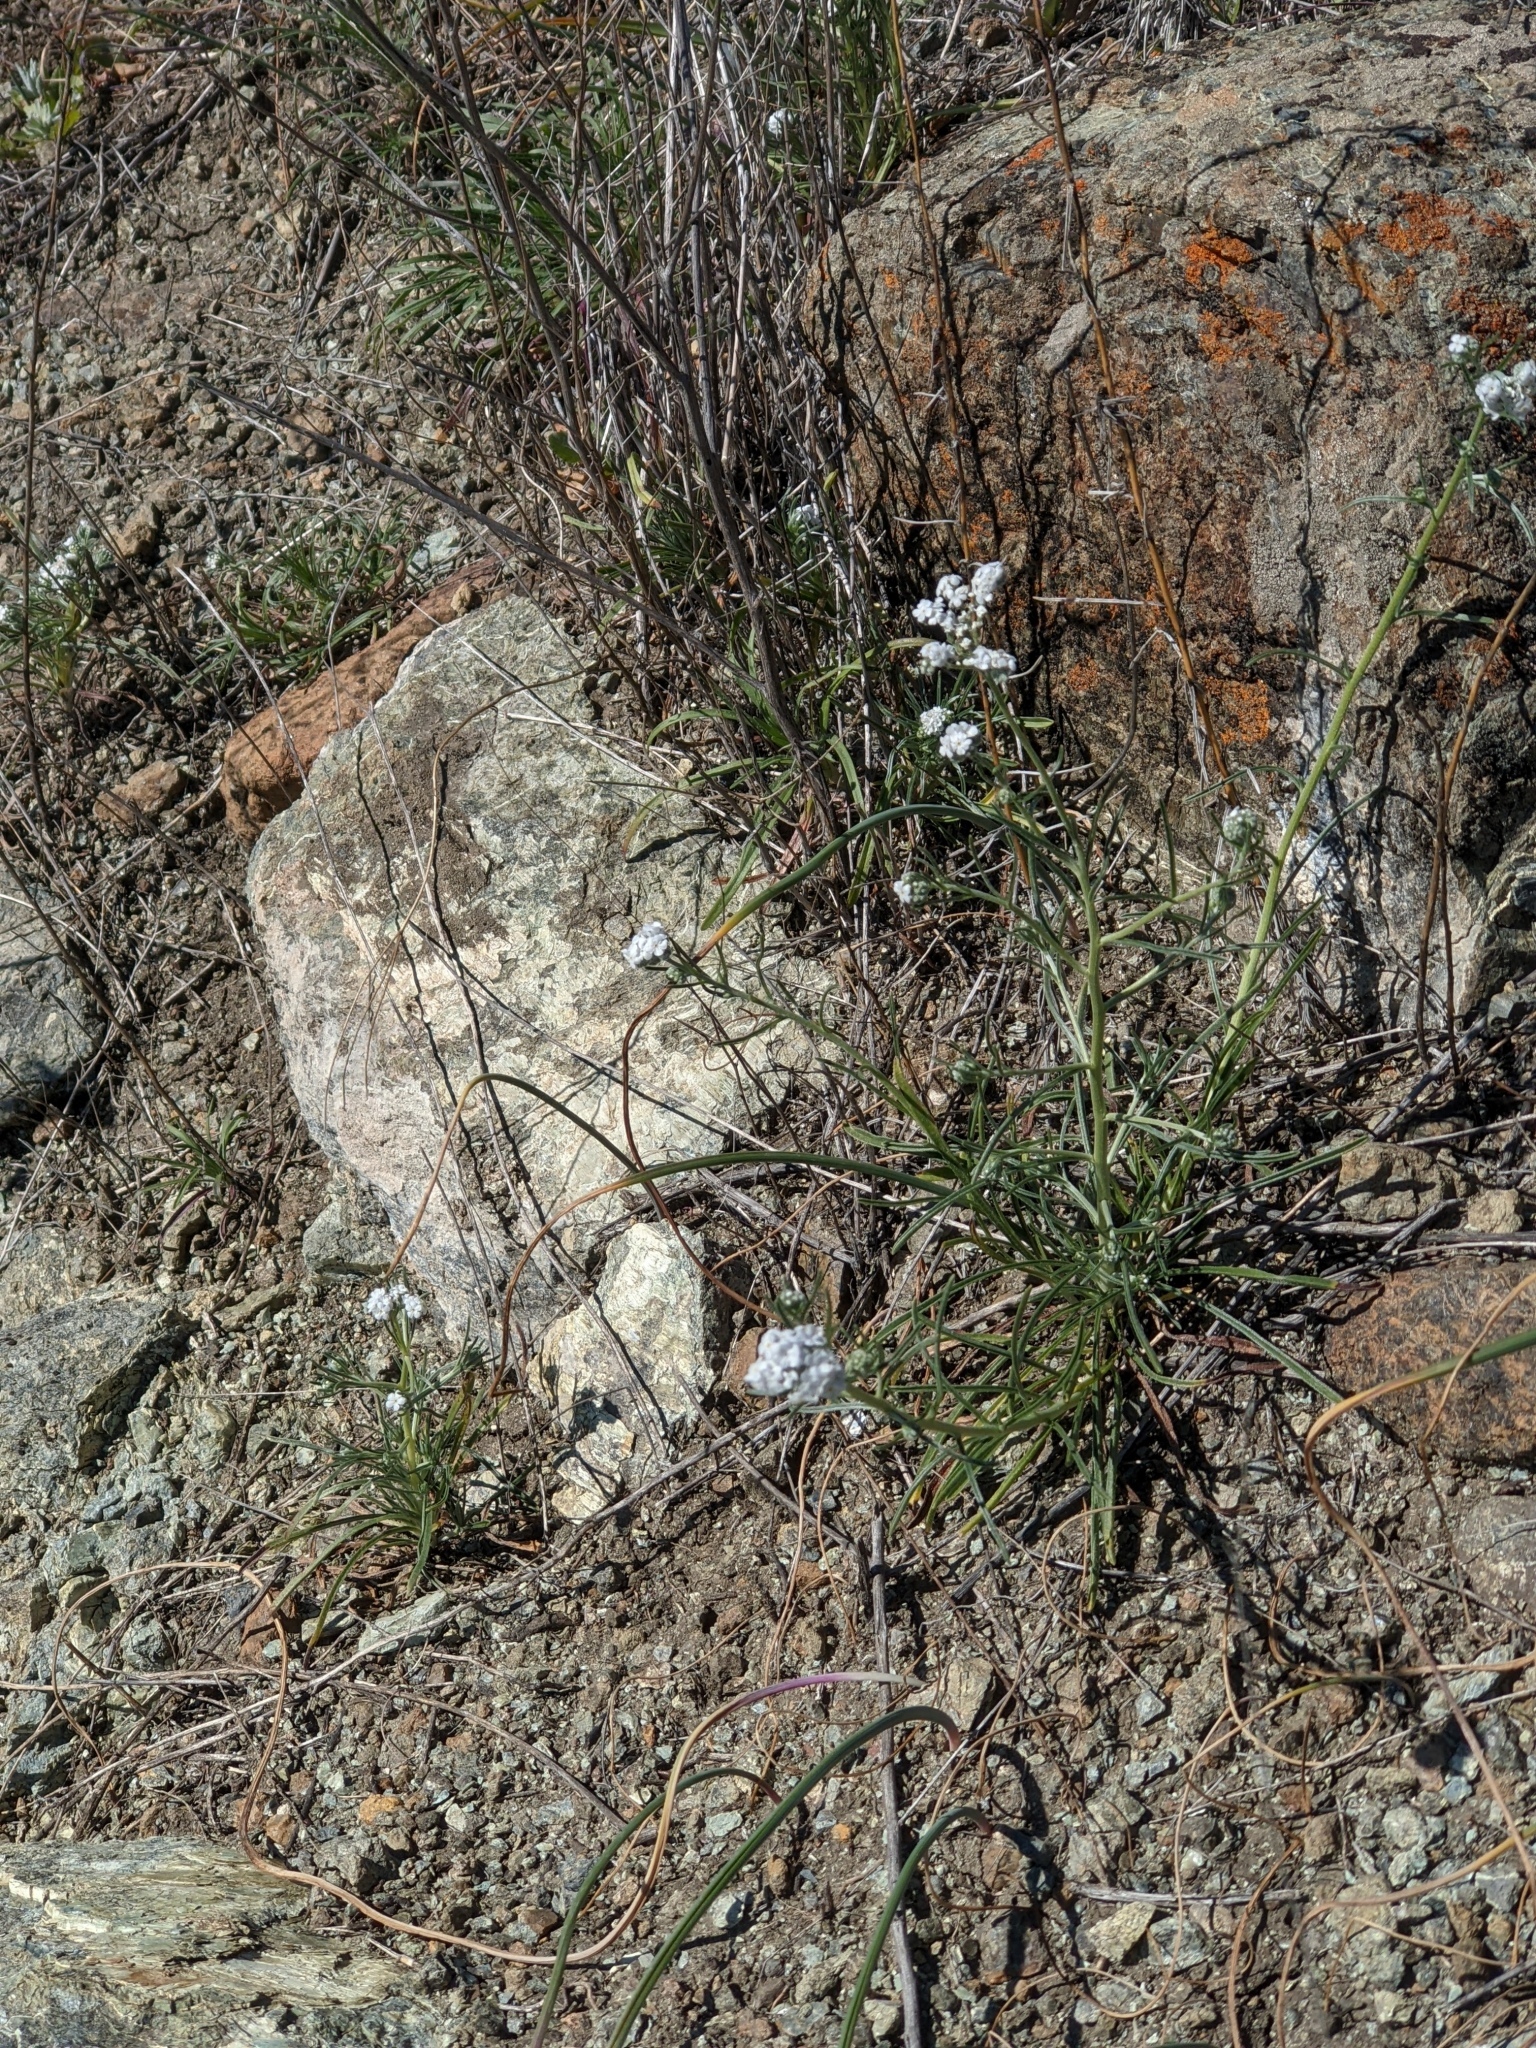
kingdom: Plantae
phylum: Tracheophyta
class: Magnoliopsida
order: Boraginales
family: Boraginaceae
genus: Cryptantha
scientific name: Cryptantha flaccida
